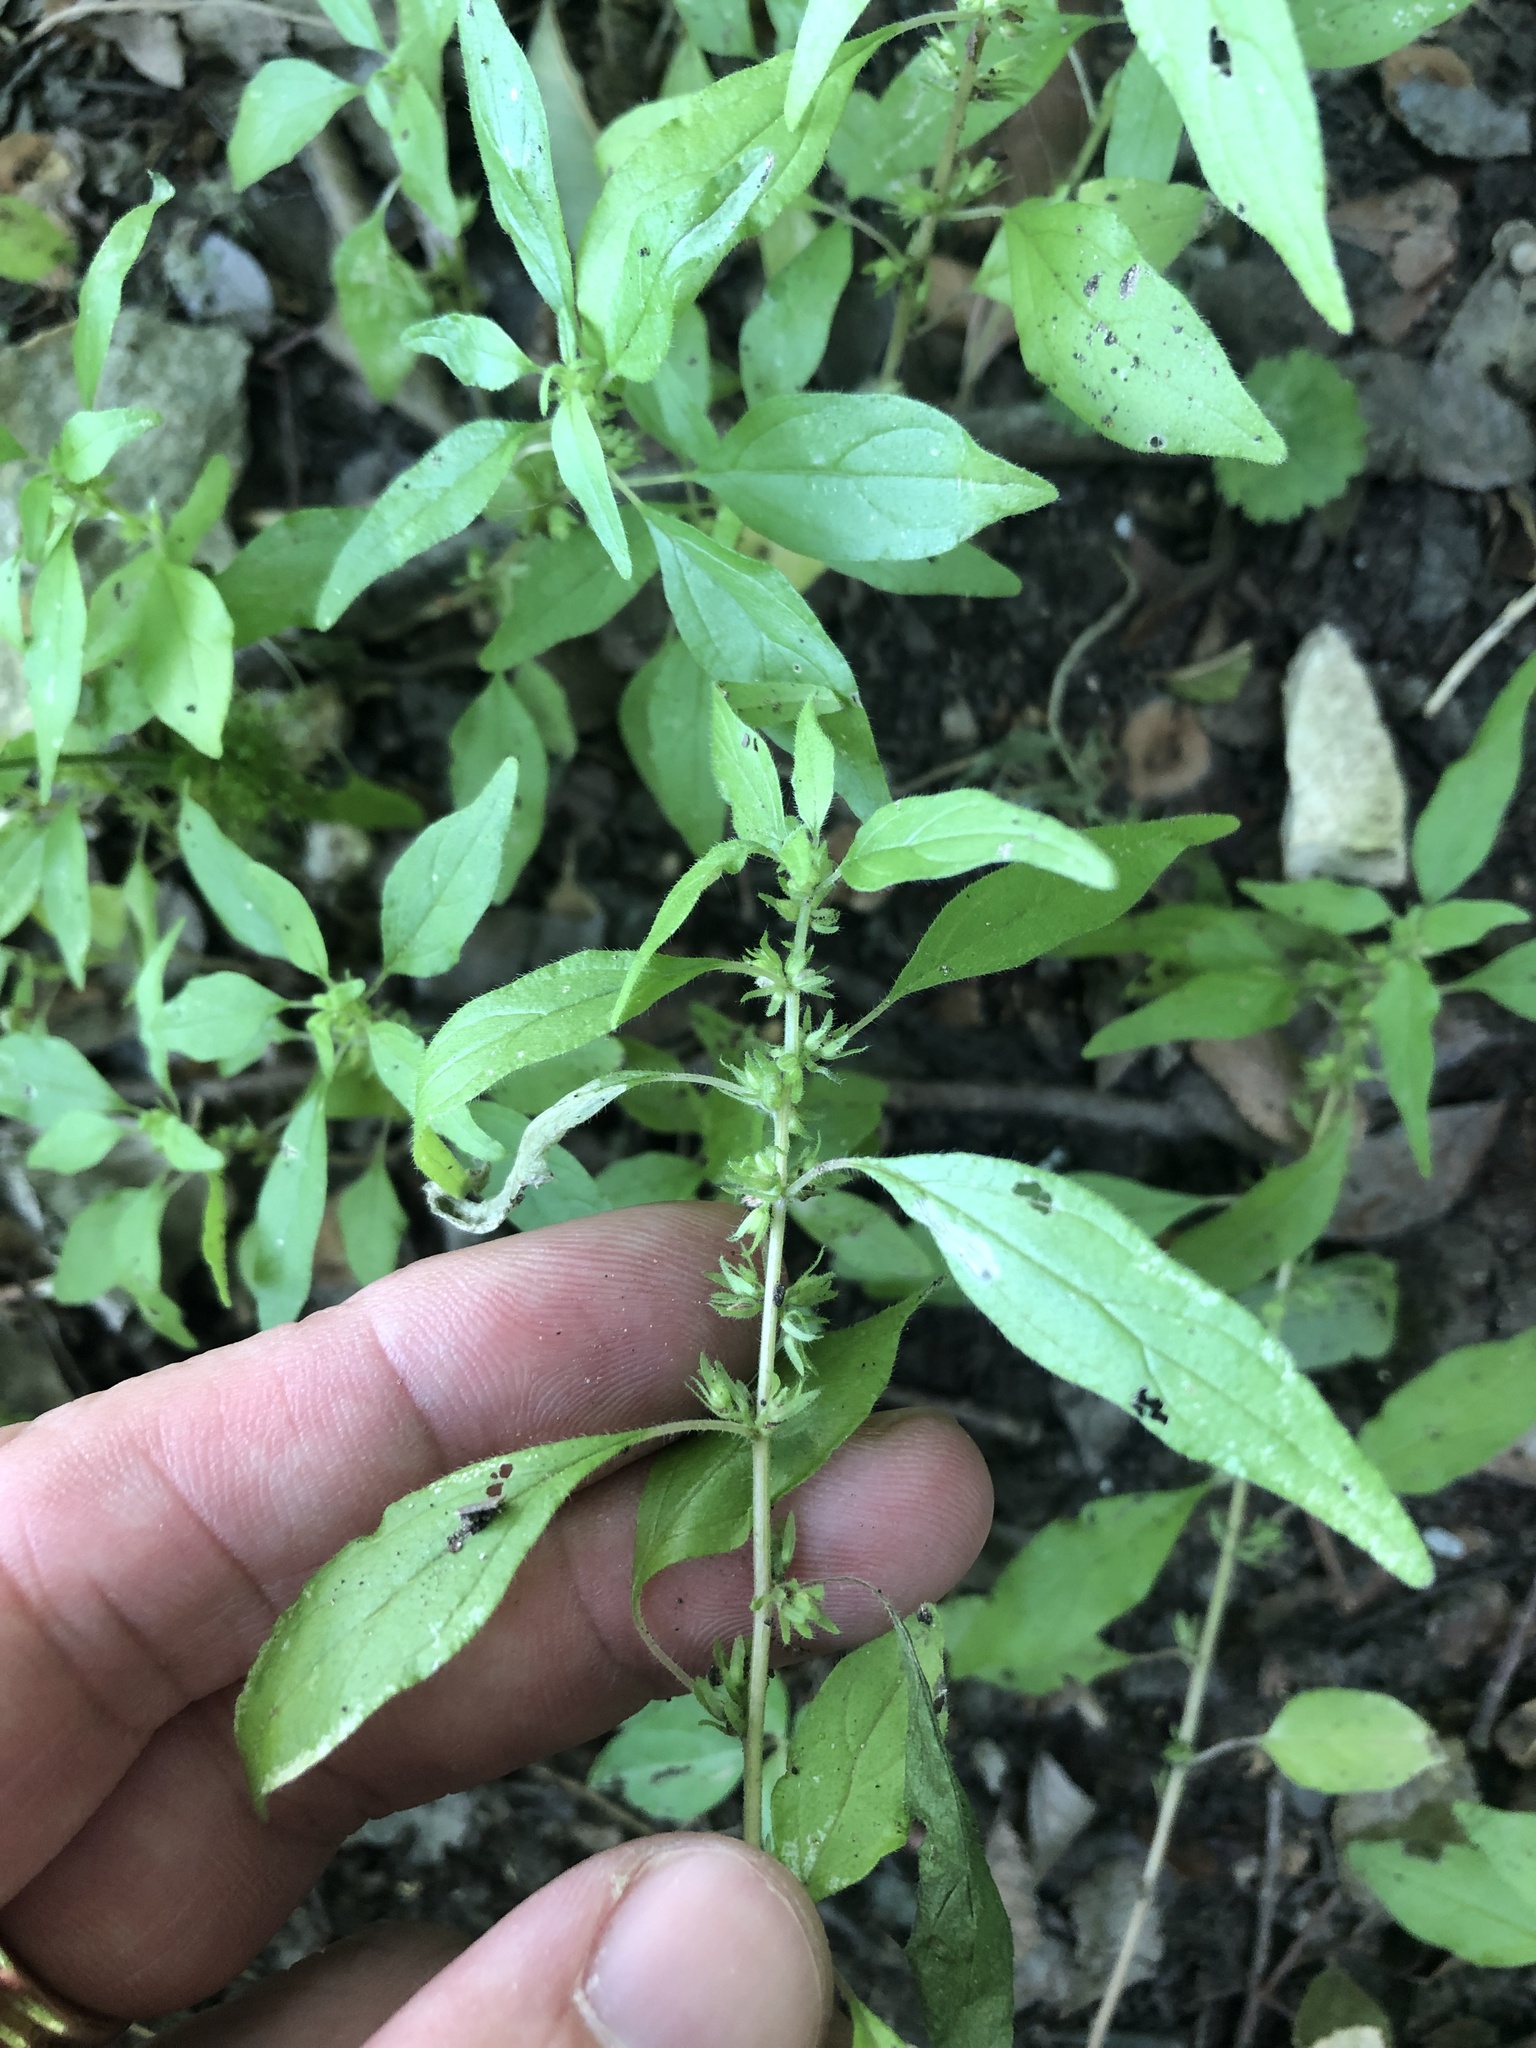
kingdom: Plantae
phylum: Tracheophyta
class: Magnoliopsida
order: Rosales
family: Urticaceae
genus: Parietaria
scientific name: Parietaria pensylvanica
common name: Pennsylvania pellitory
